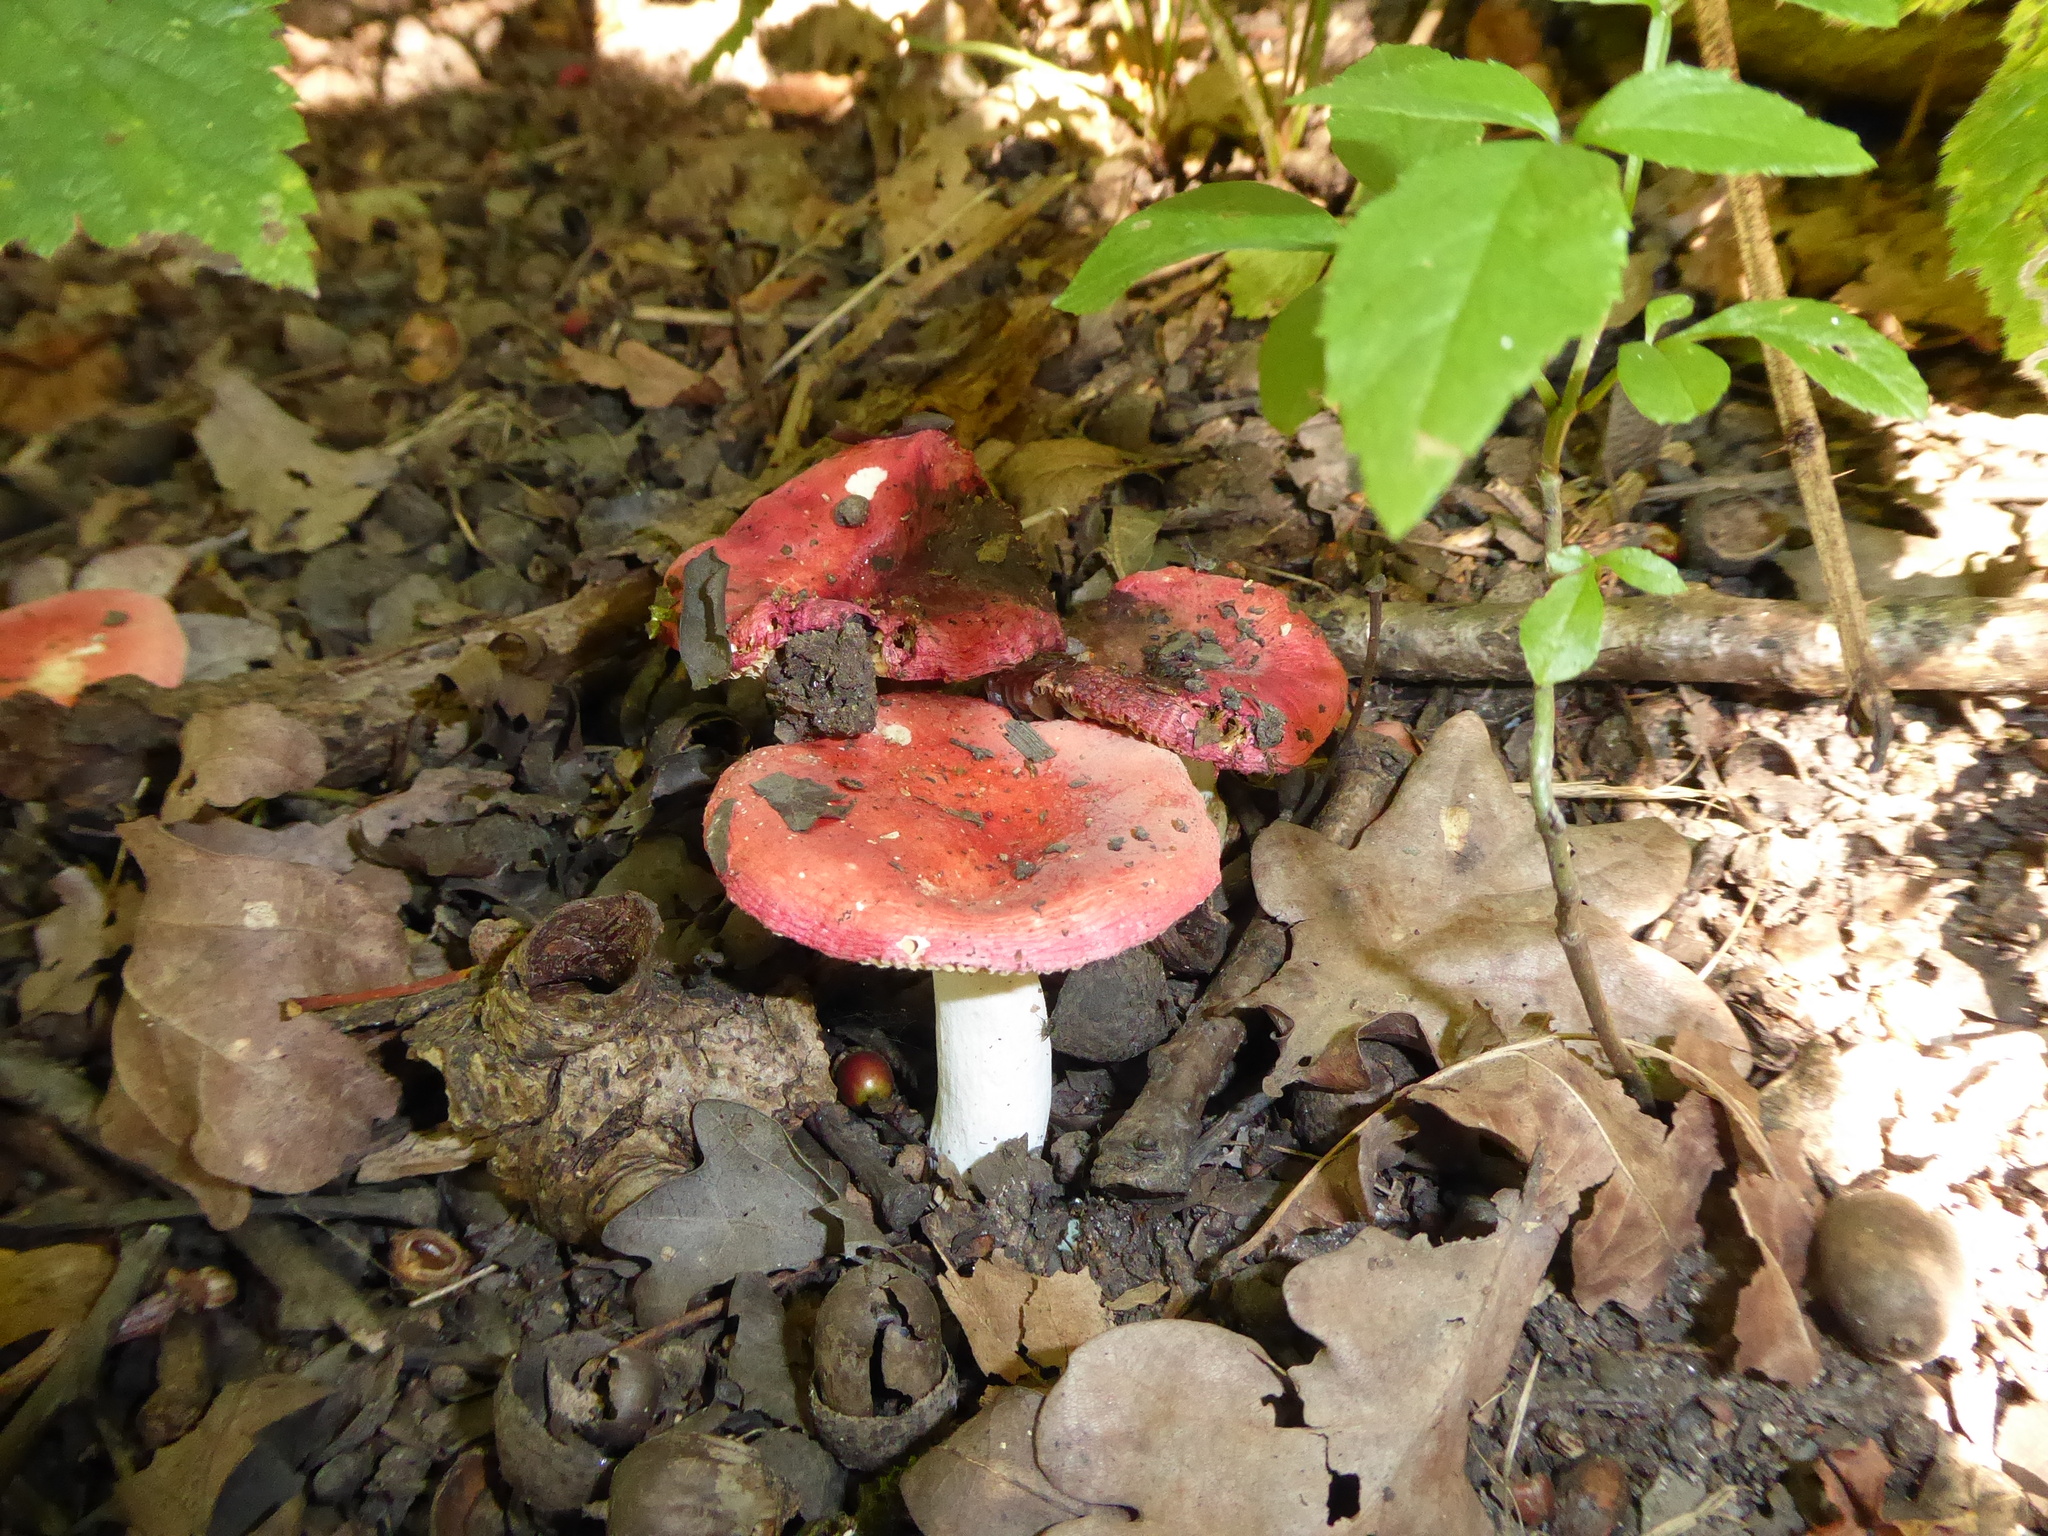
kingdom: Fungi
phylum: Basidiomycota
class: Agaricomycetes
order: Russulales
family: Russulaceae
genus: Russula
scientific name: Russula
